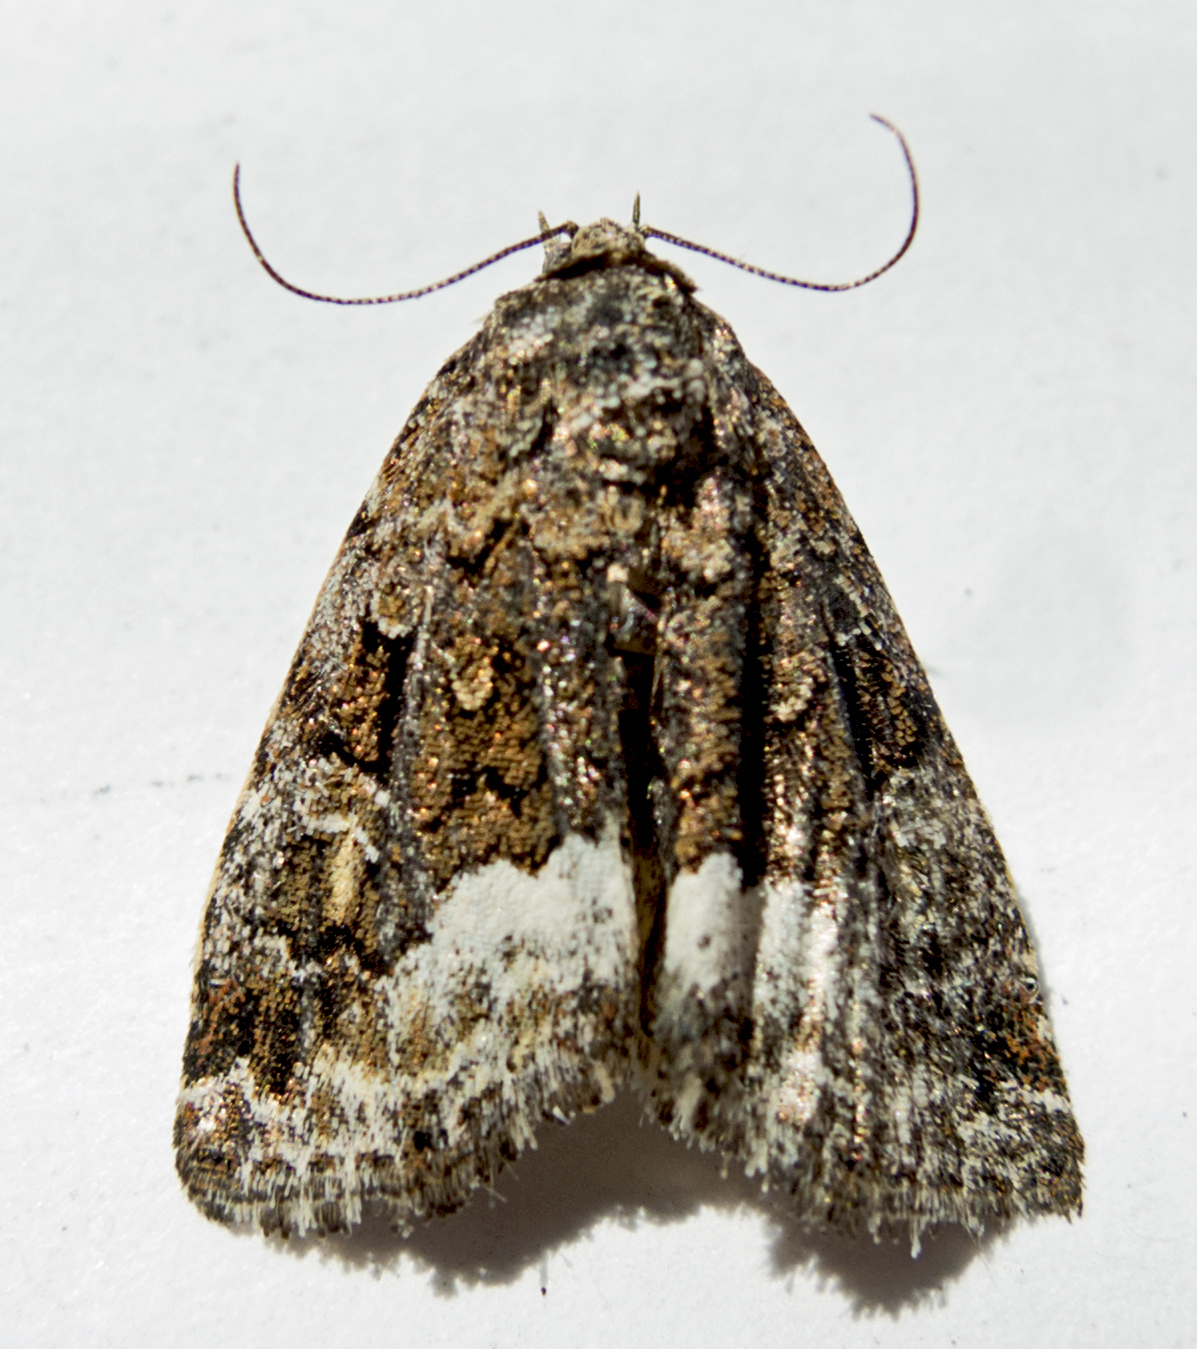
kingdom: Animalia
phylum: Arthropoda
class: Insecta
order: Lepidoptera
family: Noctuidae
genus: Deltote
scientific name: Deltote pygarga
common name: Marbled white spot
